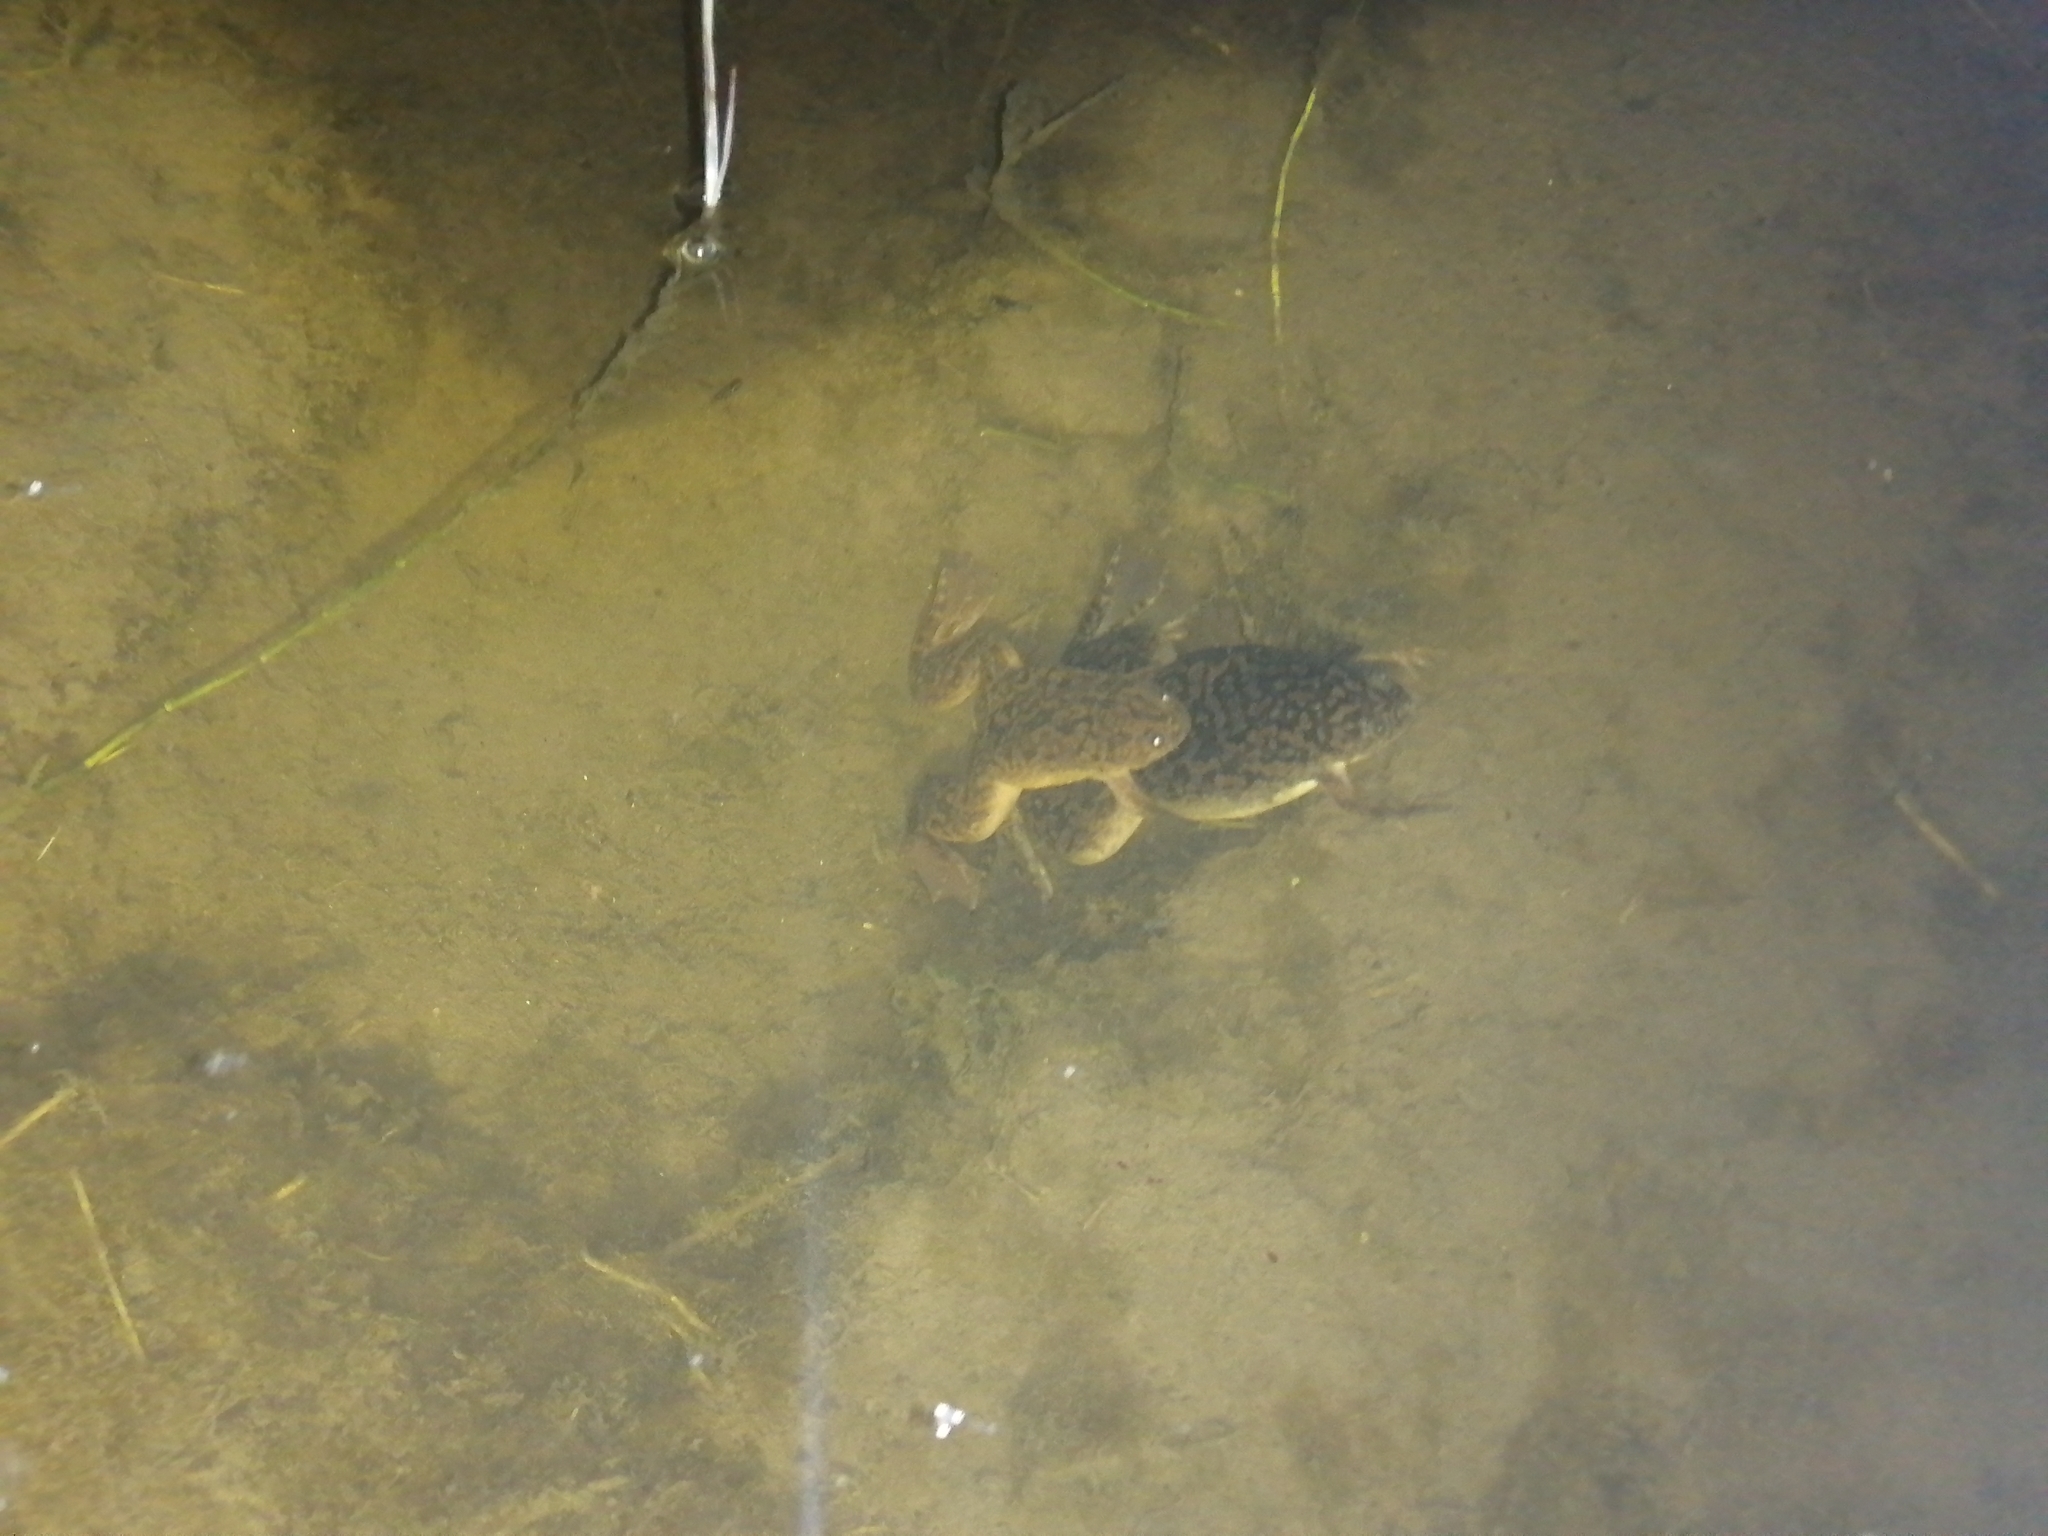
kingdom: Animalia
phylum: Chordata
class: Amphibia
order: Anura
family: Pipidae
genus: Xenopus
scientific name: Xenopus laevis
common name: African clawed frog
